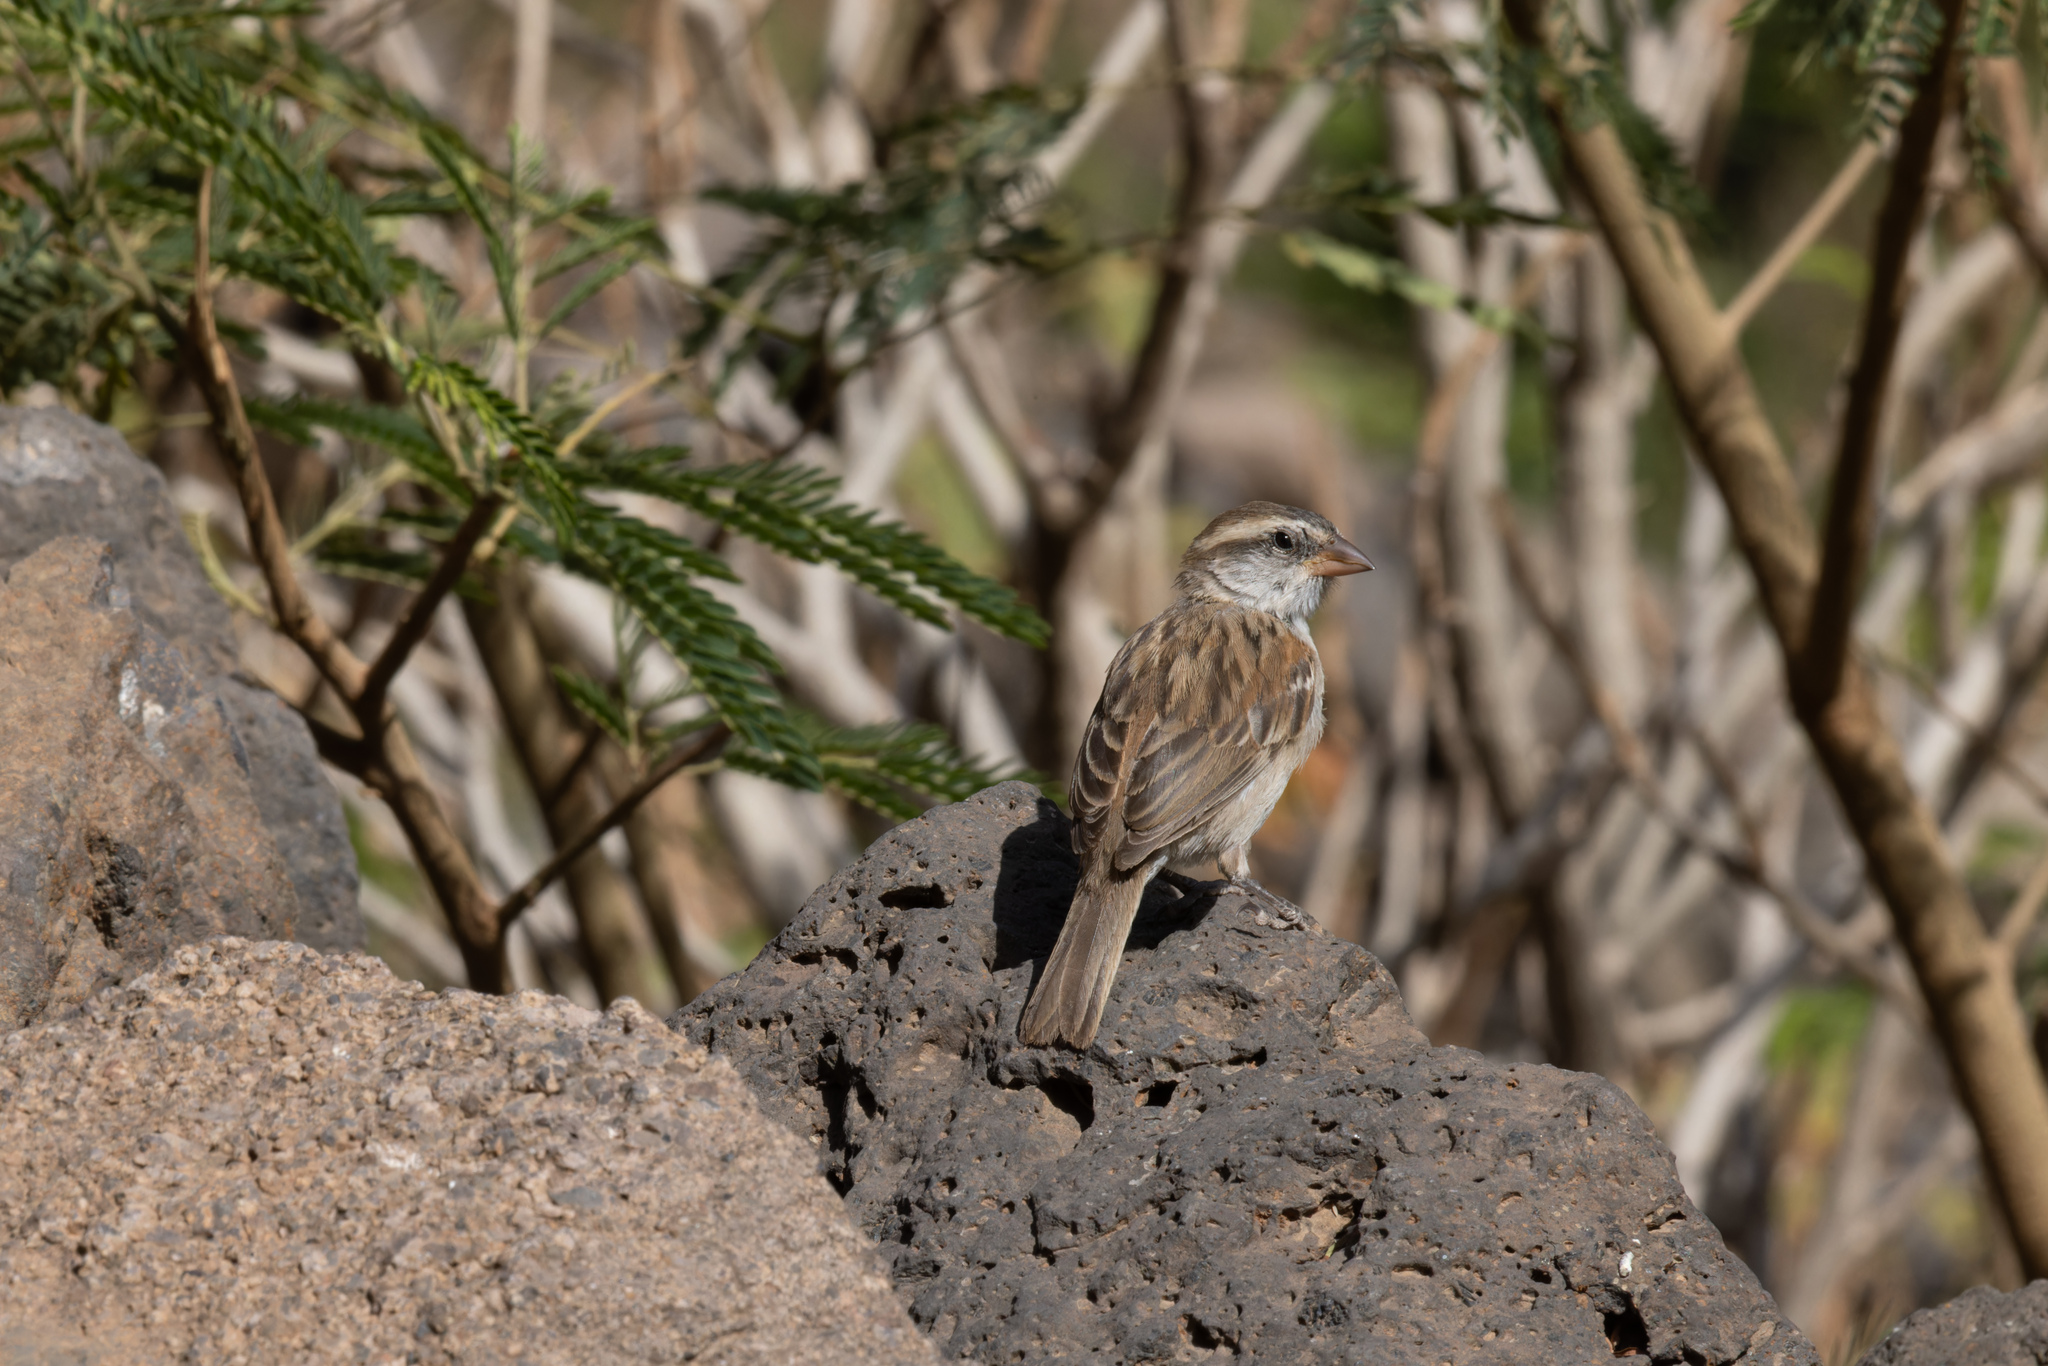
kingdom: Animalia
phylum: Chordata
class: Aves
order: Passeriformes
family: Passeridae
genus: Passer
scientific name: Passer iagoensis
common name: Iago sparrow
